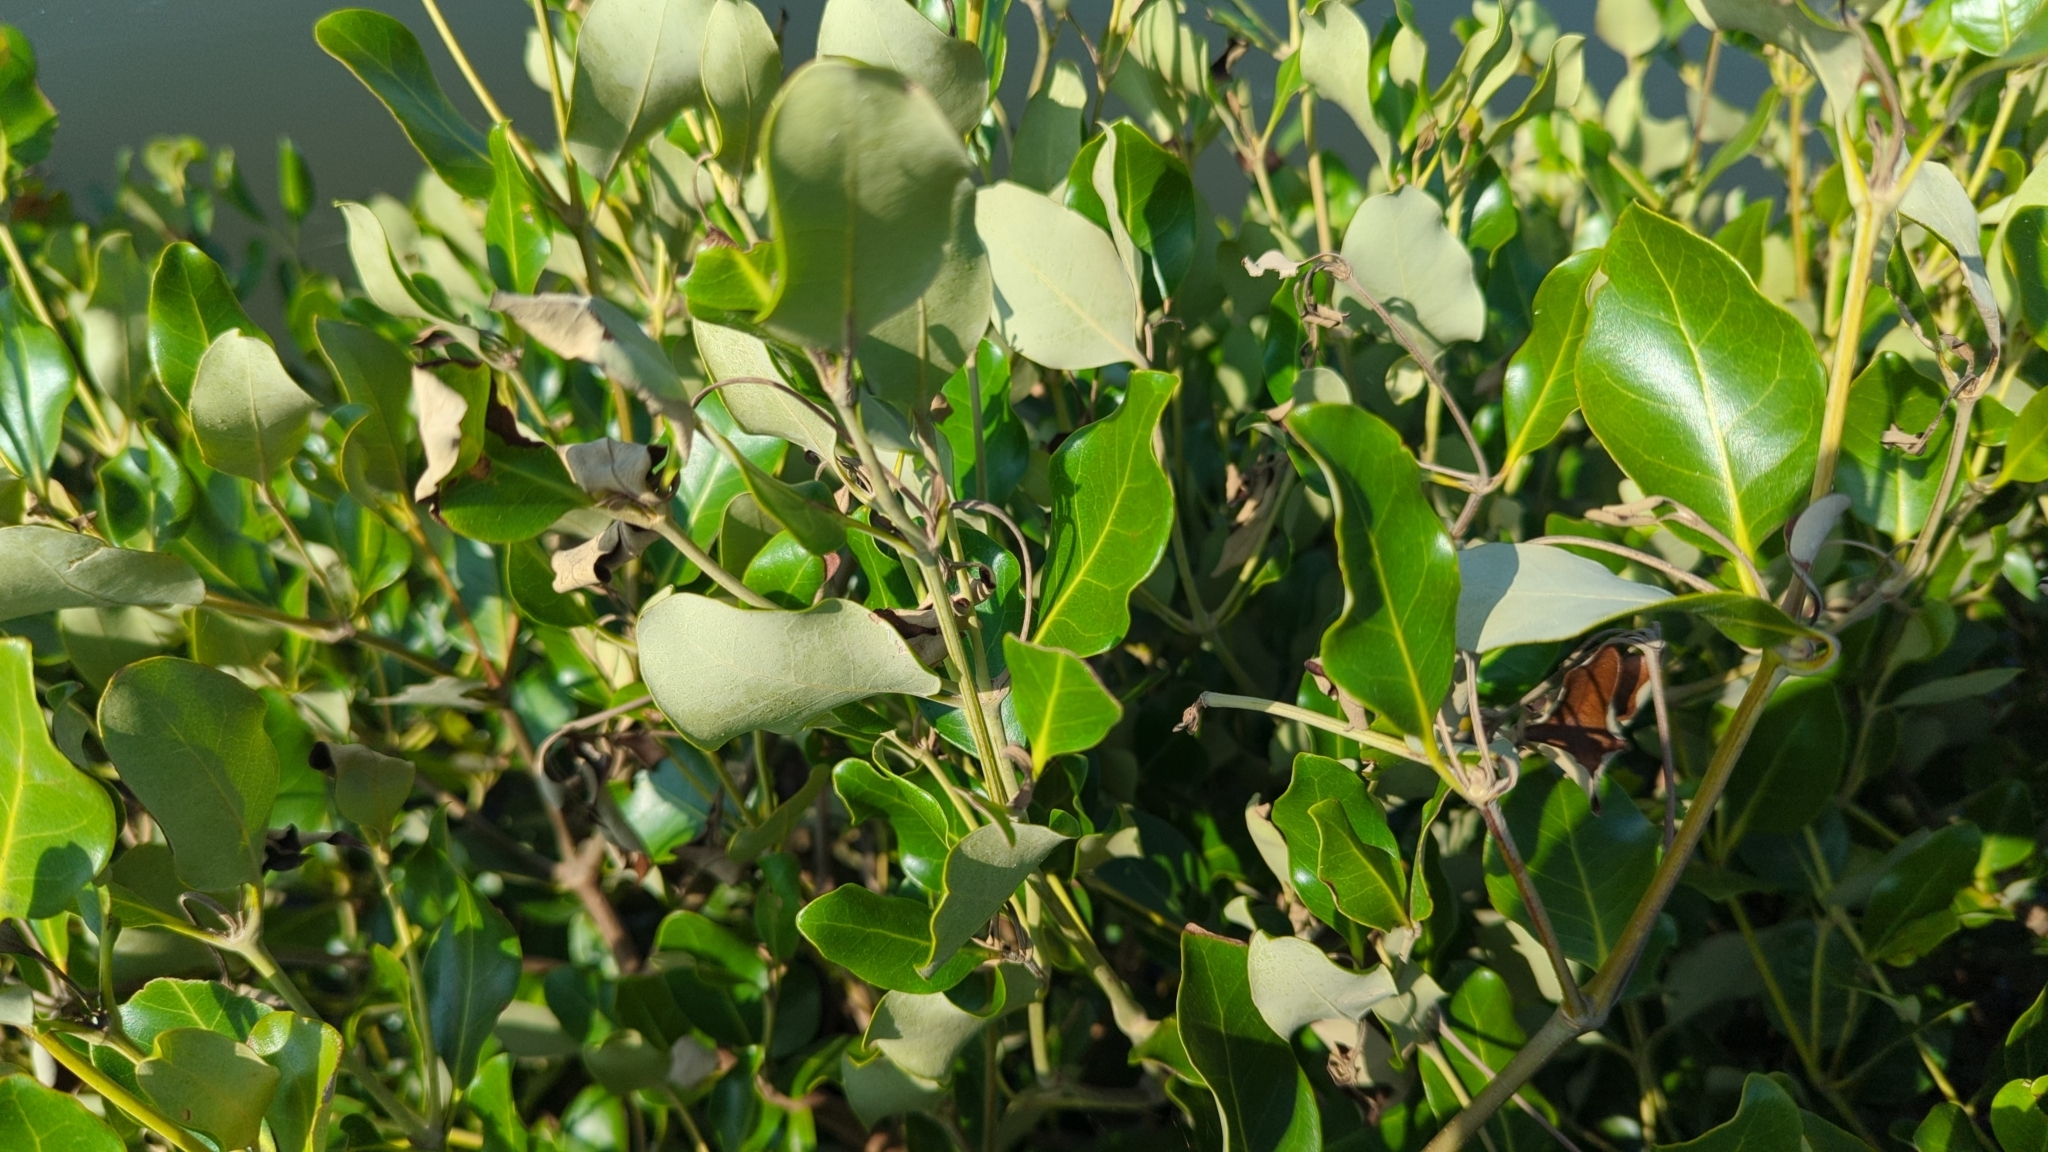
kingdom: Plantae
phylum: Tracheophyta
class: Magnoliopsida
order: Lamiales
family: Acanthaceae
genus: Avicennia
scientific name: Avicennia marina
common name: Gray mangrove
